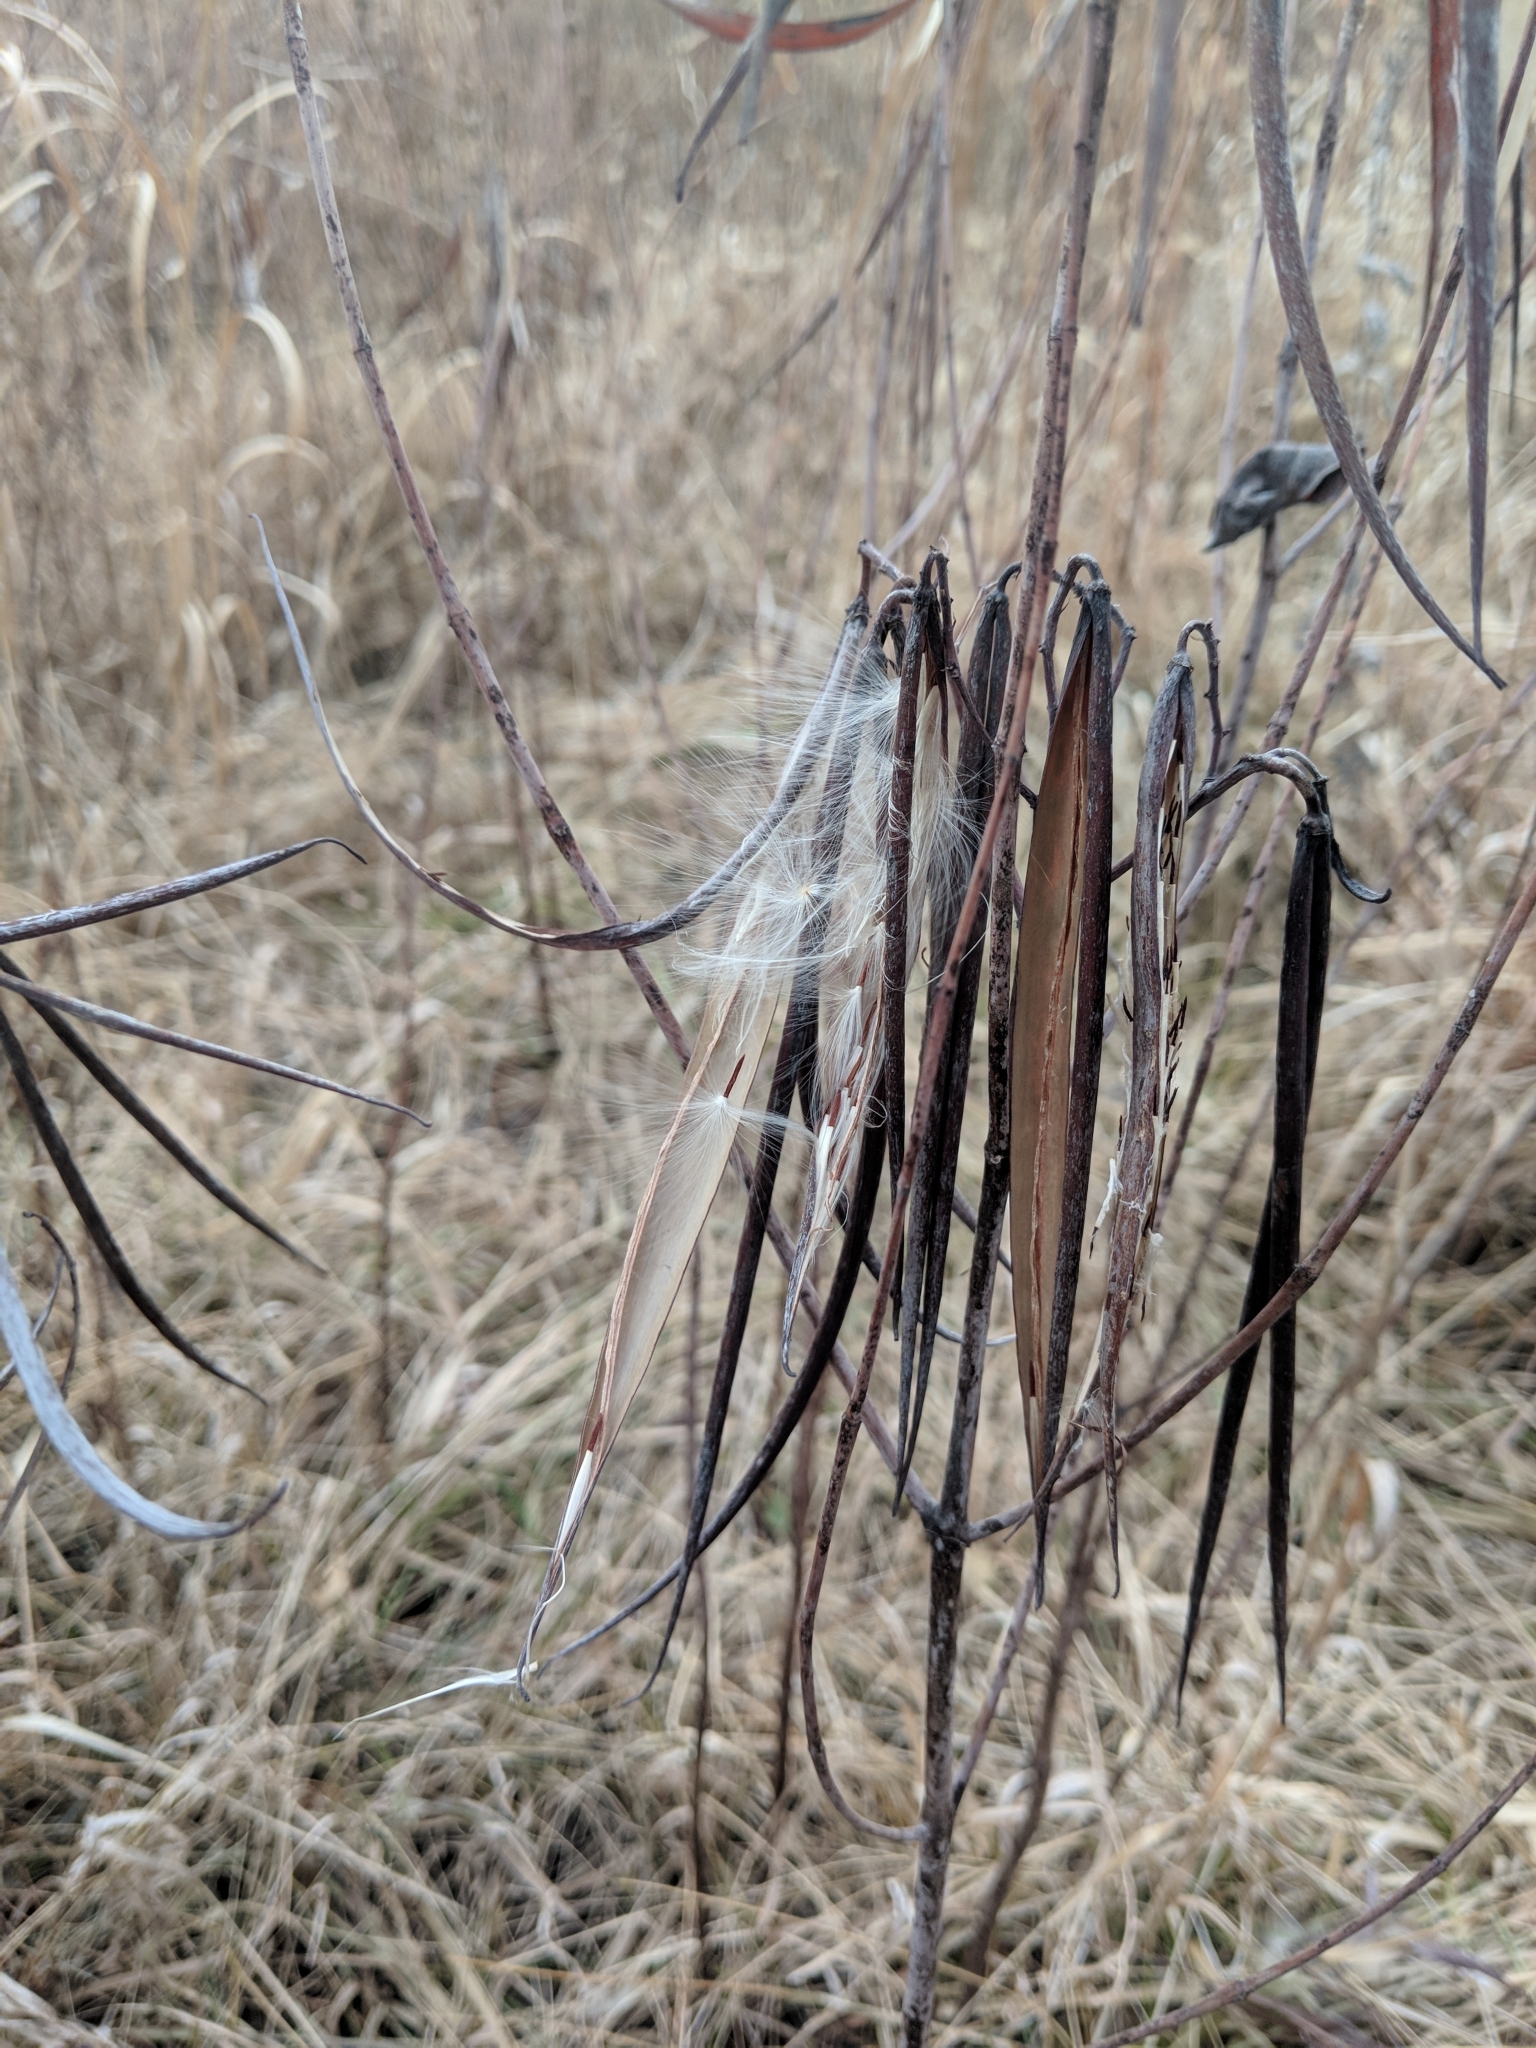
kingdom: Plantae
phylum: Tracheophyta
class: Magnoliopsida
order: Gentianales
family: Apocynaceae
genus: Apocynum
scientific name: Apocynum cannabinum
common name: Hemp dogbane
